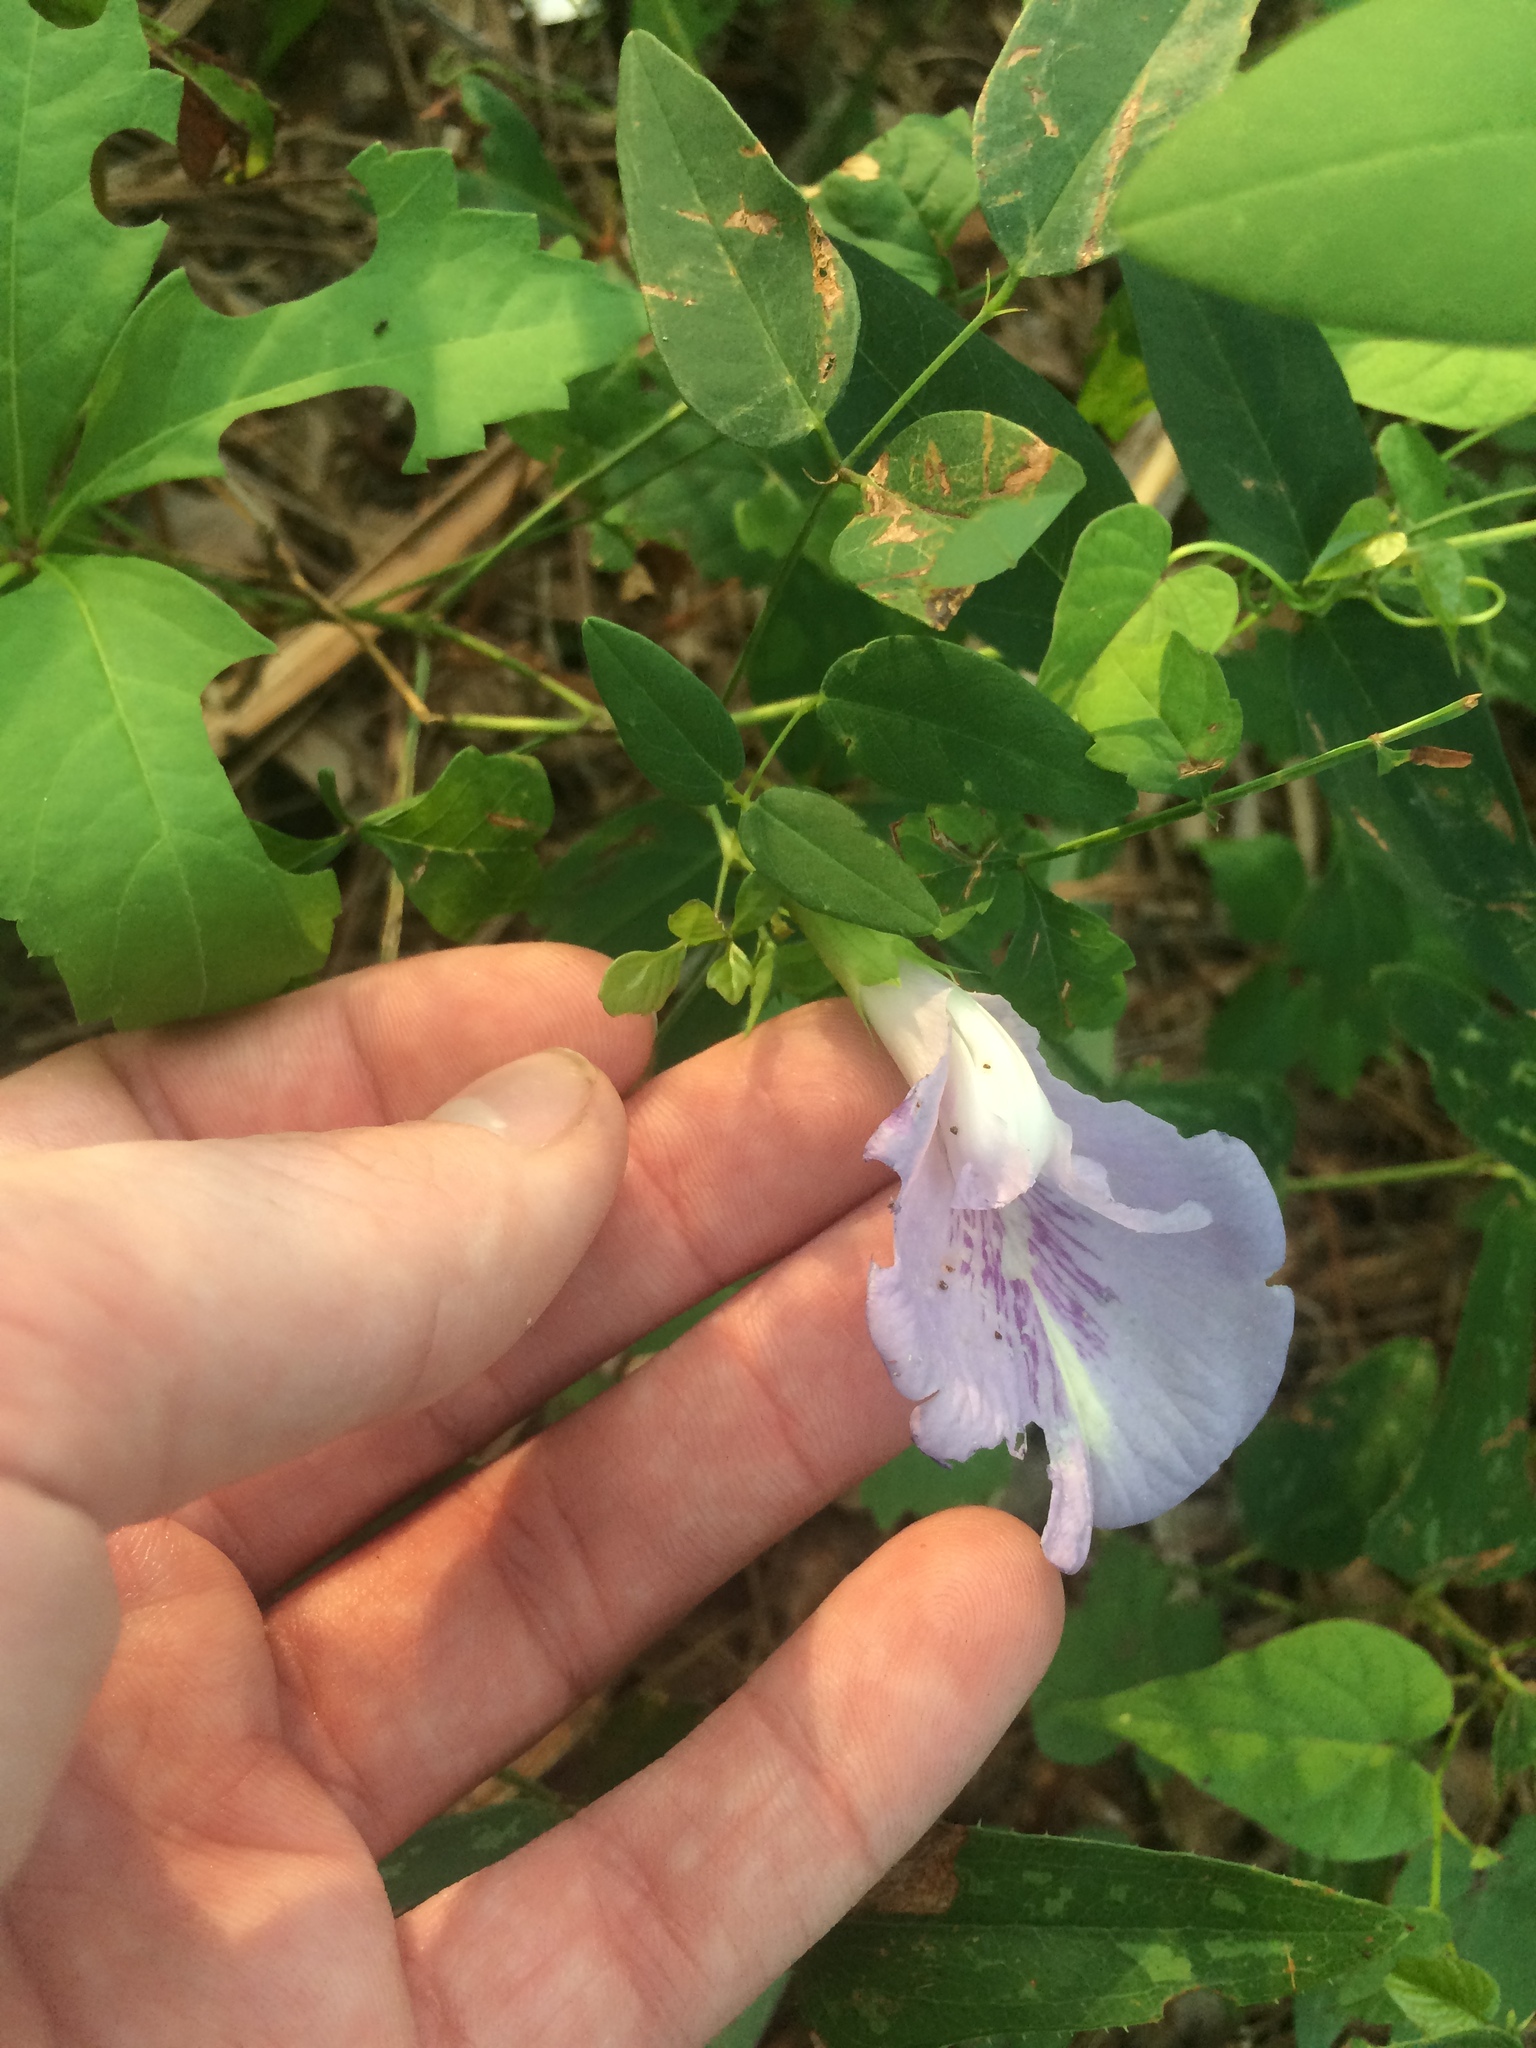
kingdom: Plantae
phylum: Tracheophyta
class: Magnoliopsida
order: Fabales
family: Fabaceae
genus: Clitoria
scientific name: Clitoria mariana
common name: Butterfly-pea
